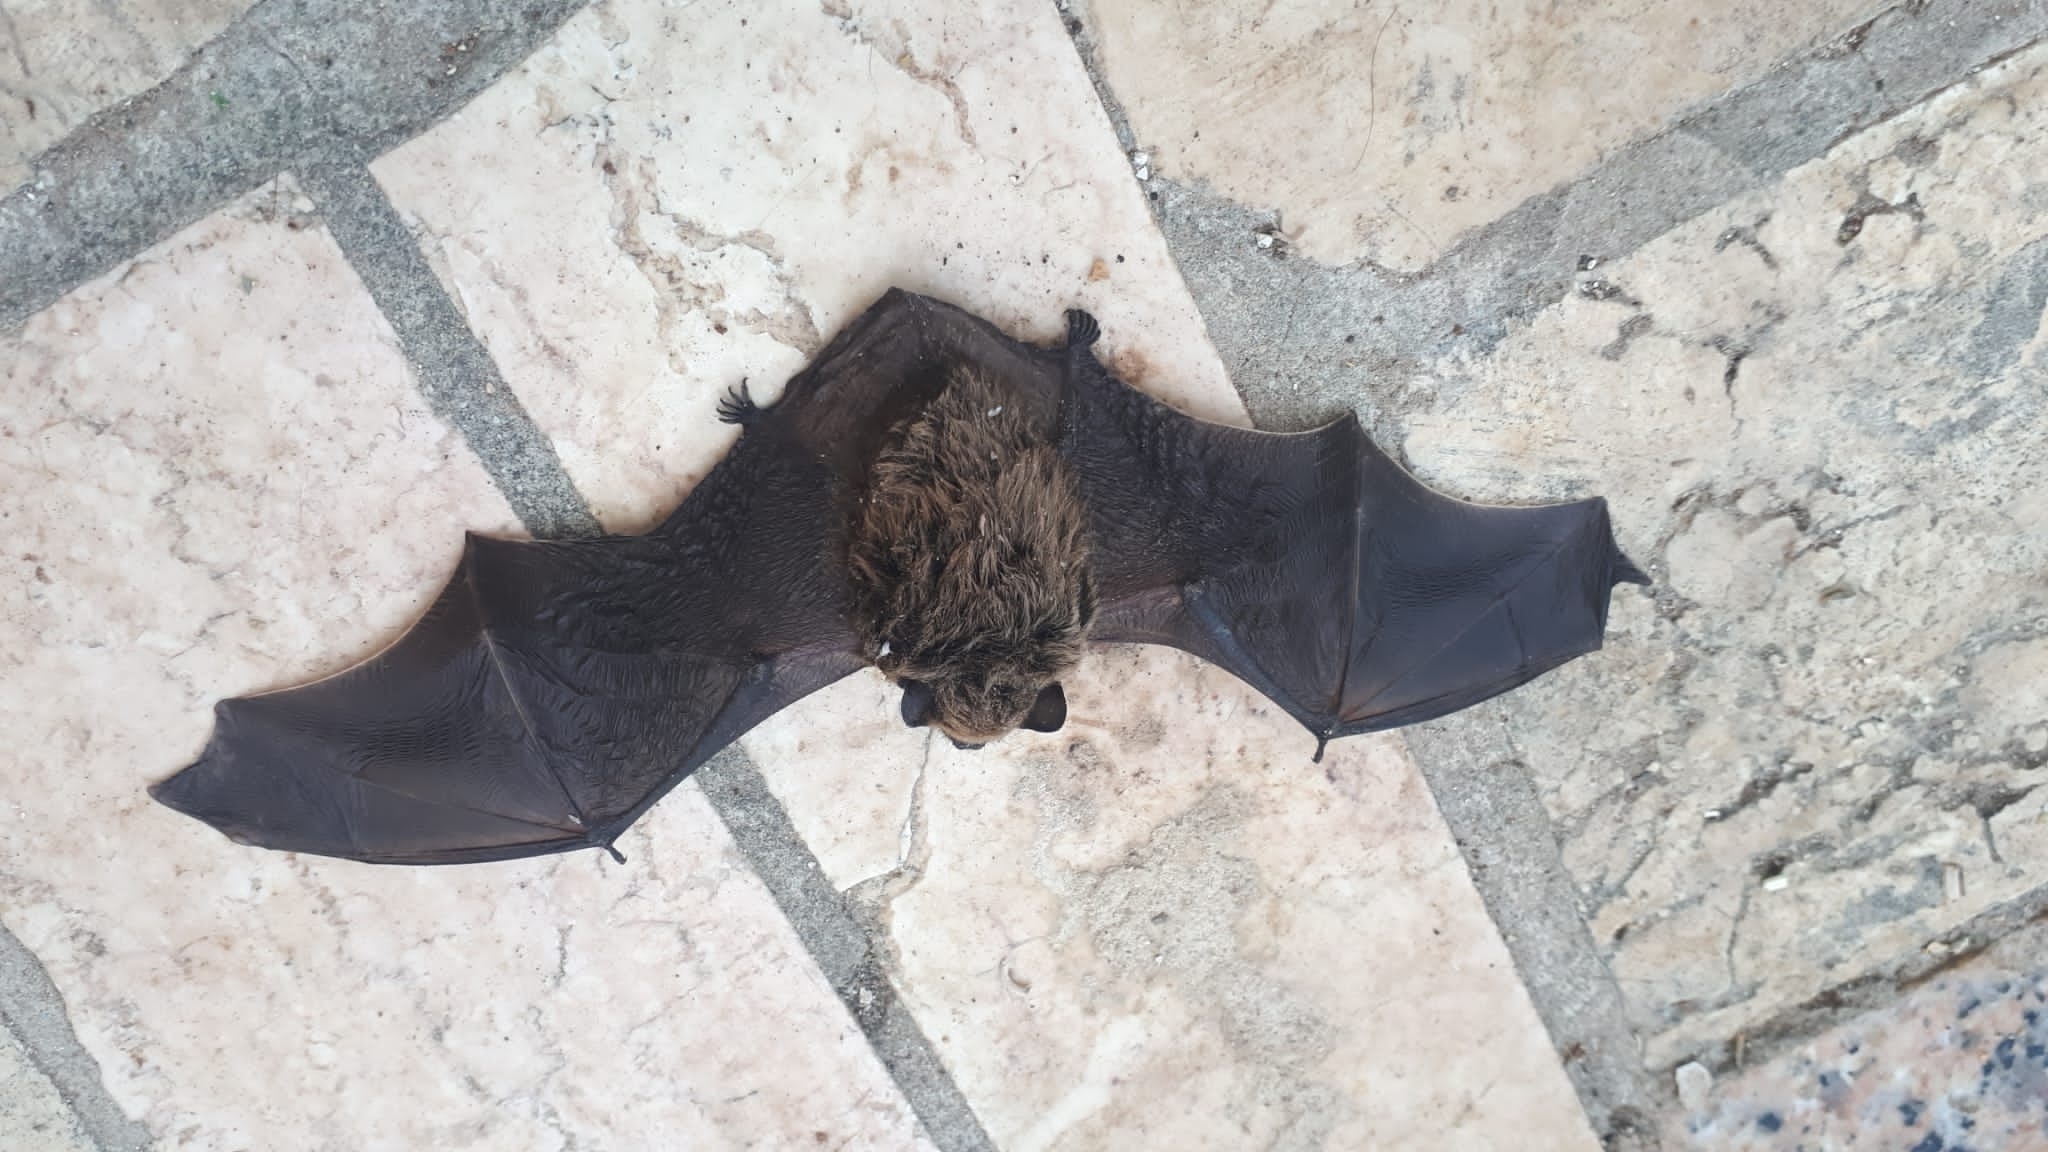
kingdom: Animalia
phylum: Chordata
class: Mammalia
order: Chiroptera
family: Vespertilionidae
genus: Hypsugo
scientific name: Hypsugo savii
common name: Savi's pipistrelle
